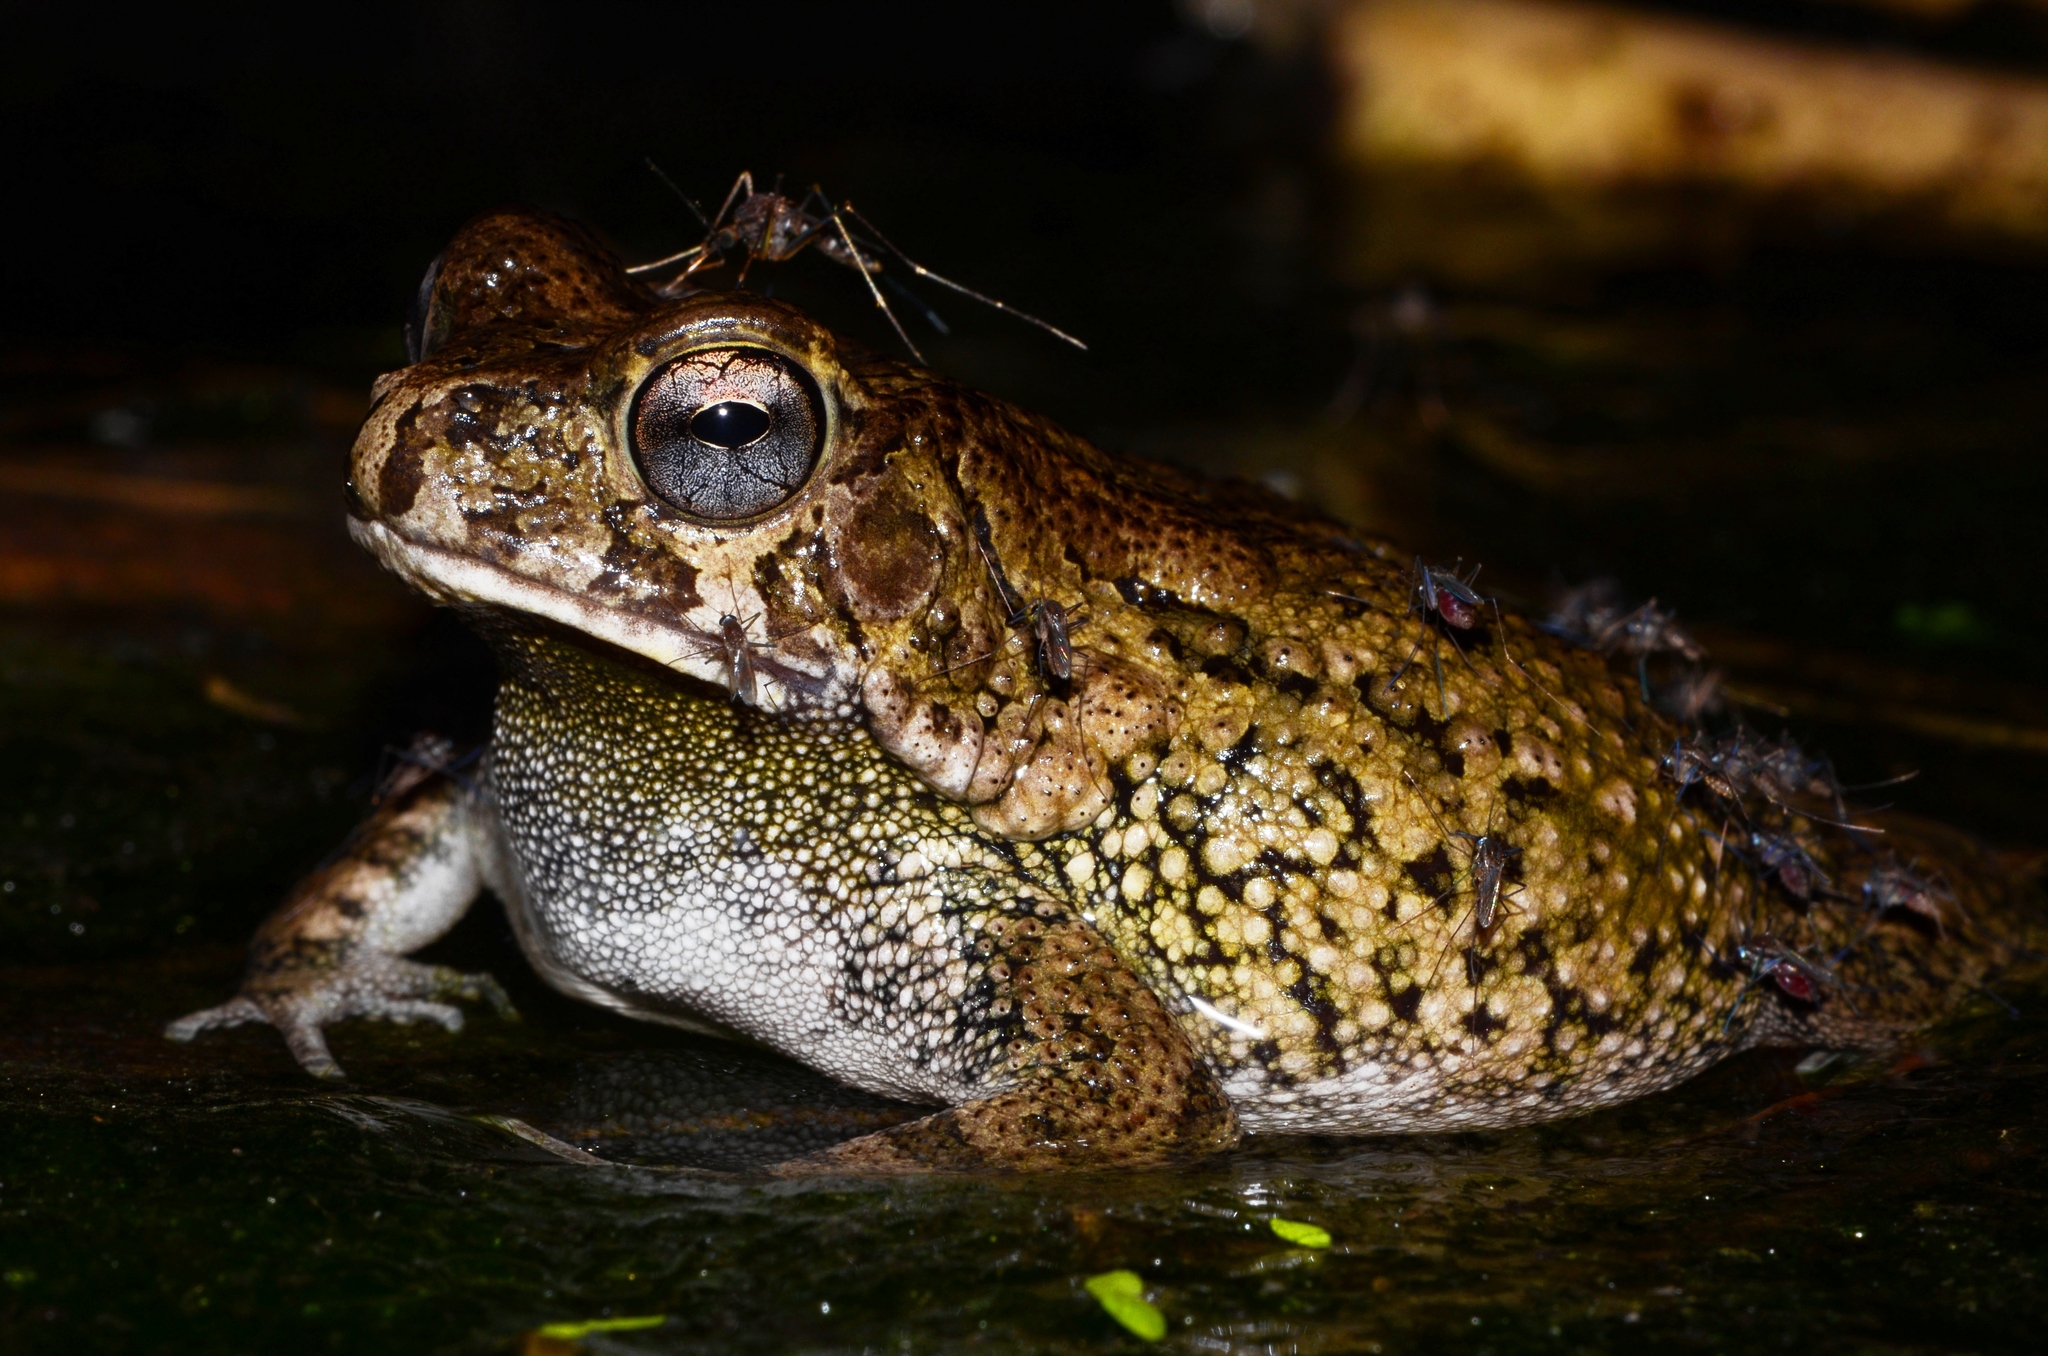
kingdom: Animalia
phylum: Chordata
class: Amphibia
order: Anura
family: Bufonidae
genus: Sclerophrys
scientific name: Sclerophrys pusilla
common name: Merten's striped toad
